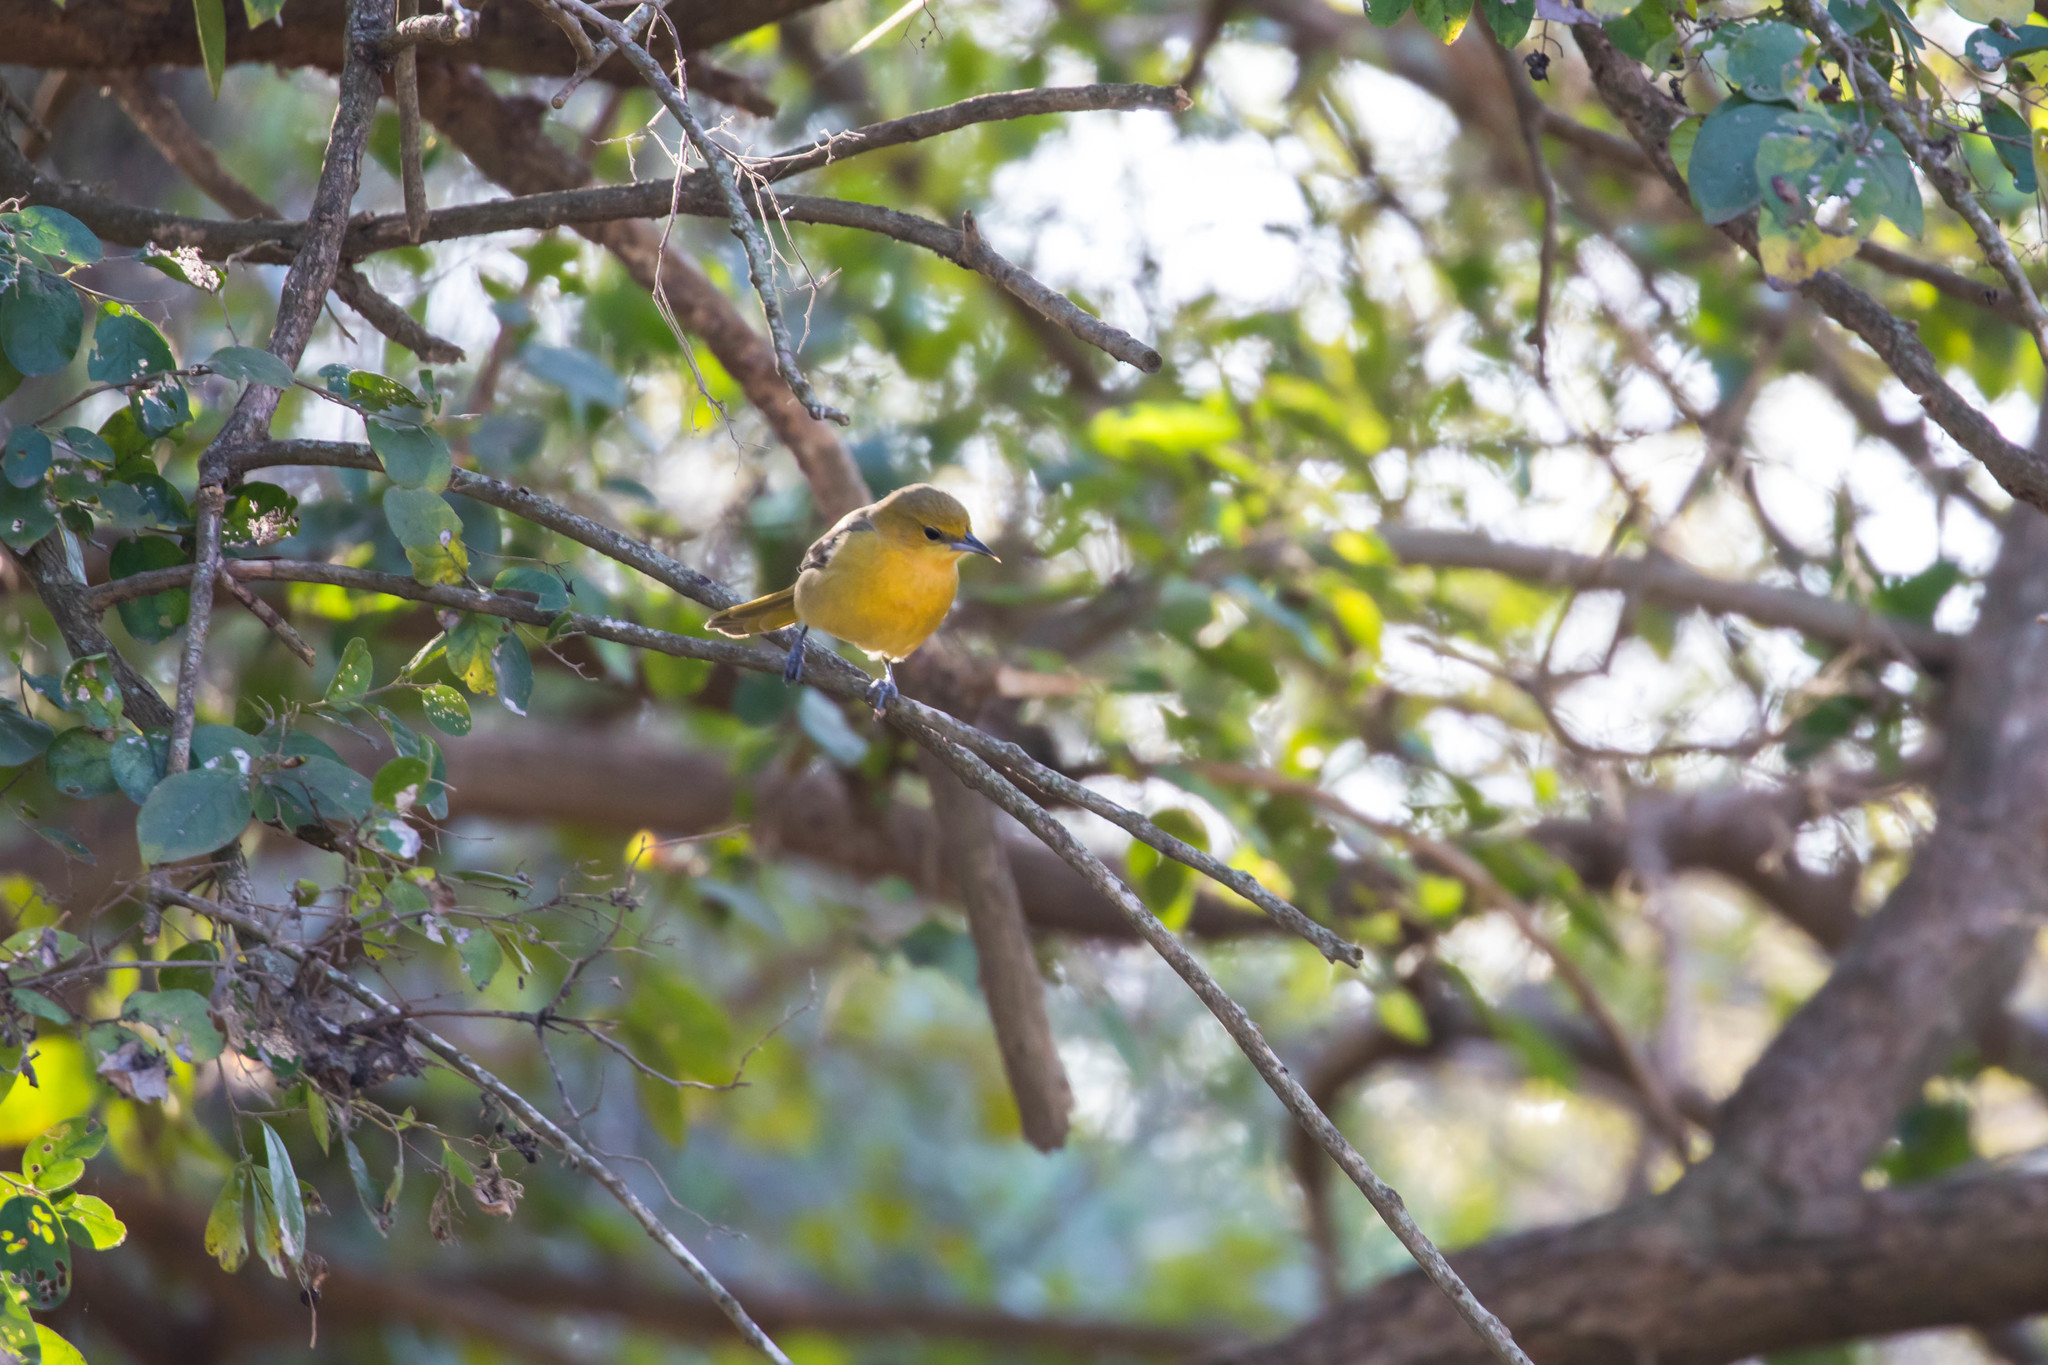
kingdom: Animalia
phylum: Chordata
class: Aves
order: Passeriformes
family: Icteridae
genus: Icterus
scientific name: Icterus cucullatus
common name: Hooded oriole
